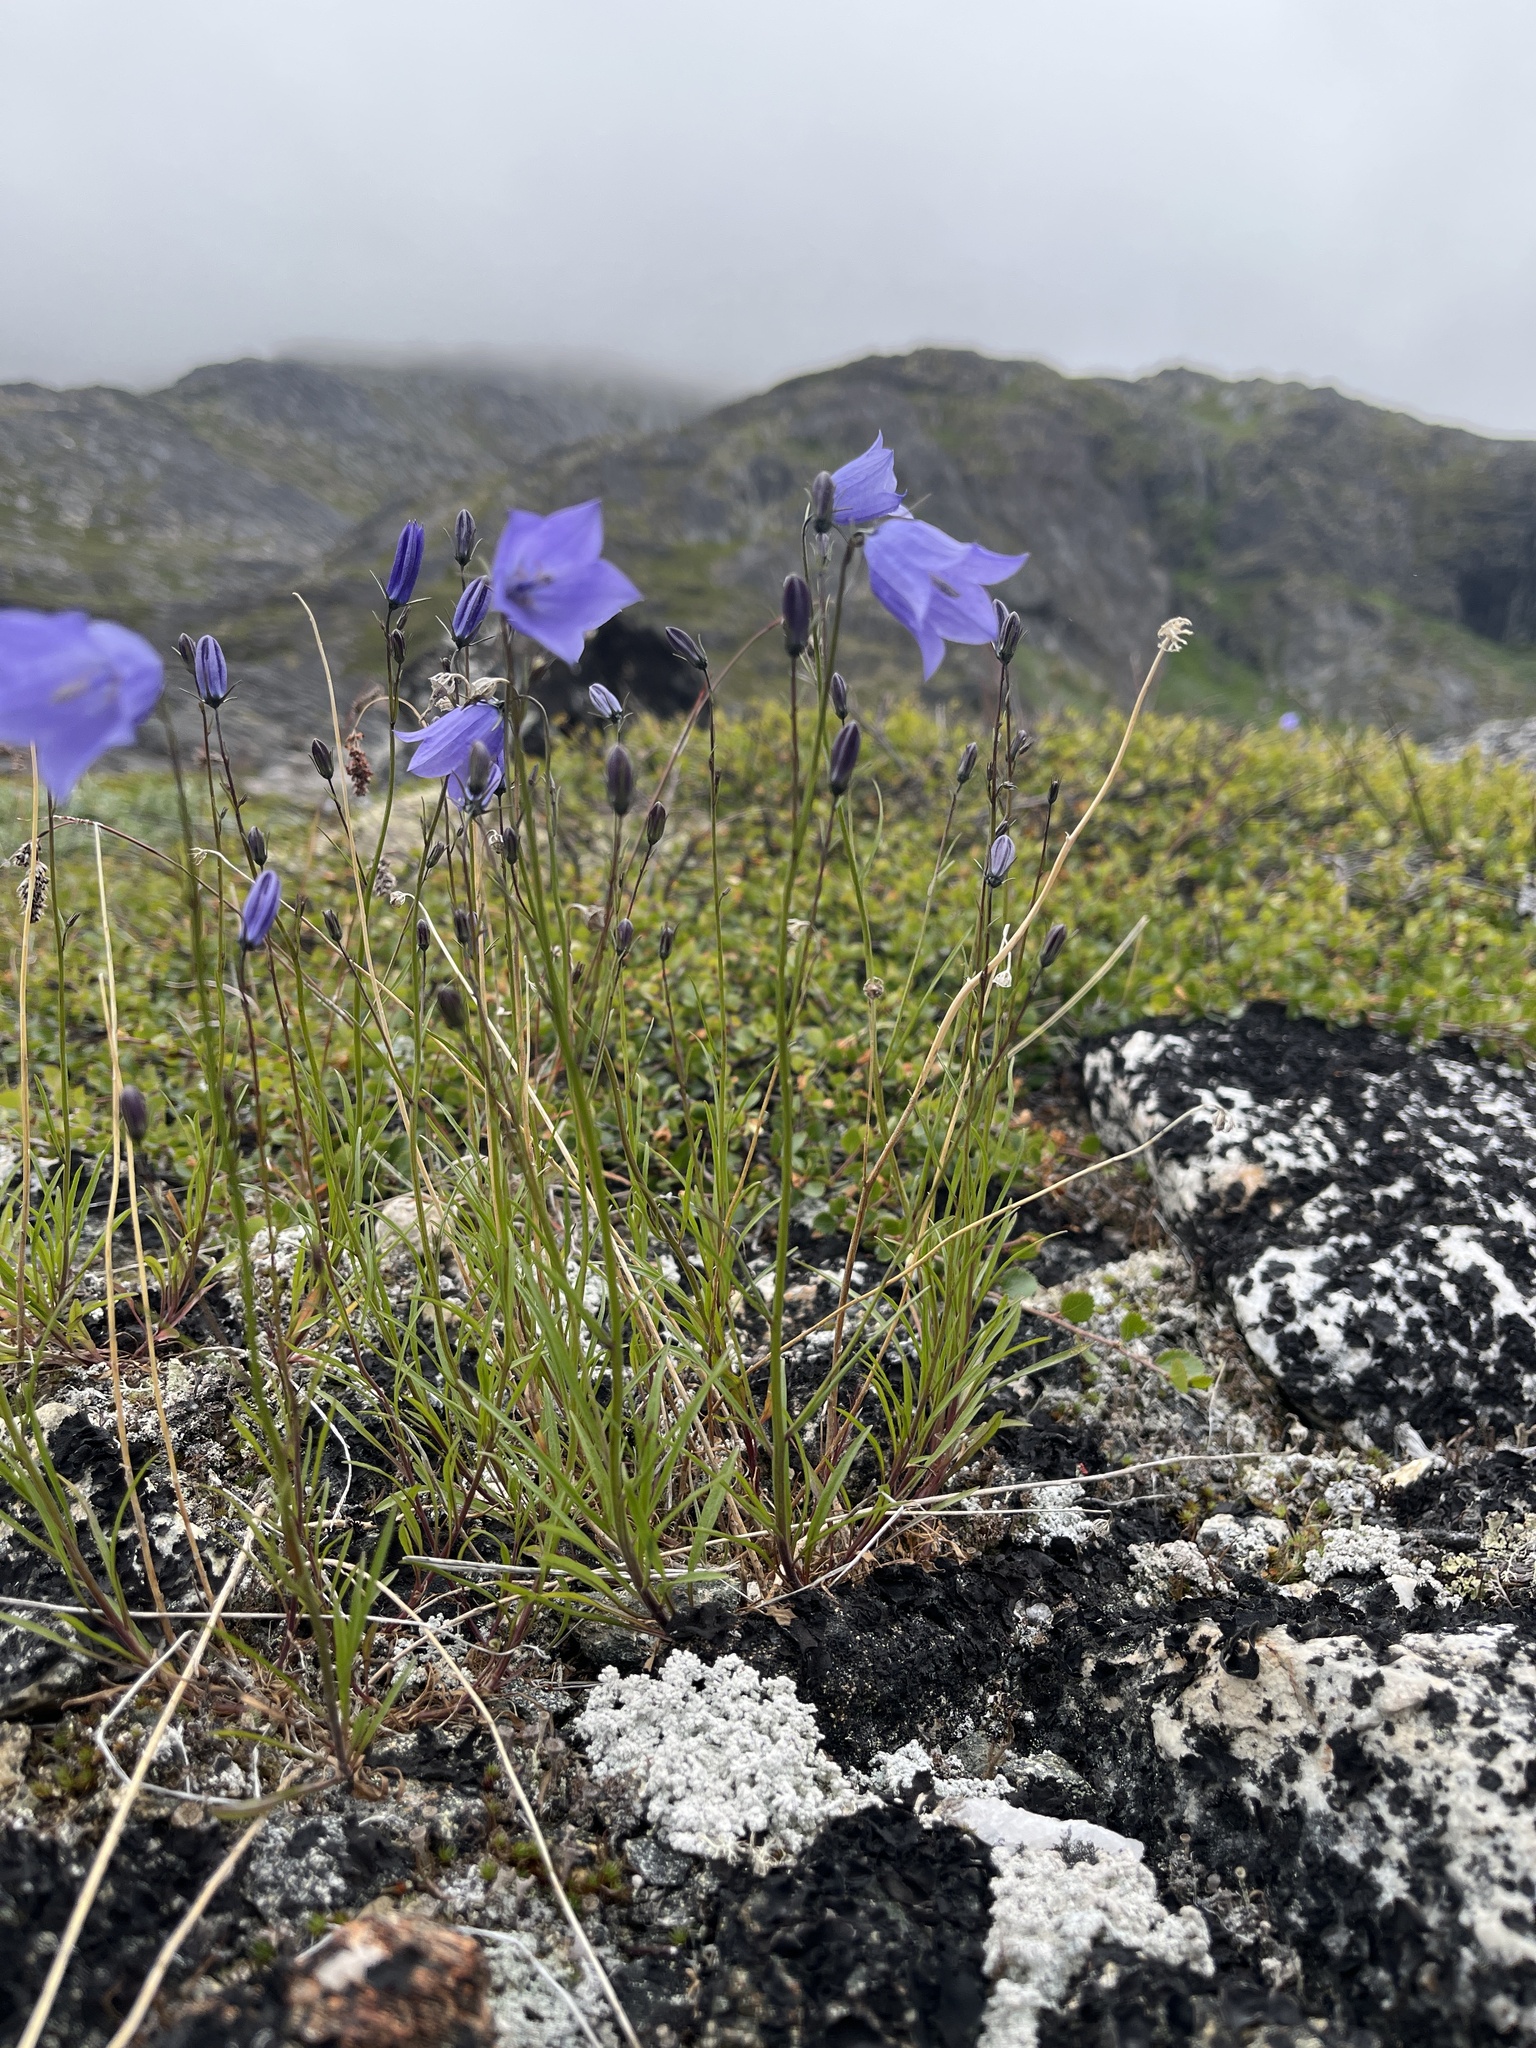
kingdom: Plantae
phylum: Tracheophyta
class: Magnoliopsida
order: Asterales
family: Campanulaceae
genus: Campanula
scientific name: Campanula giesekiana
